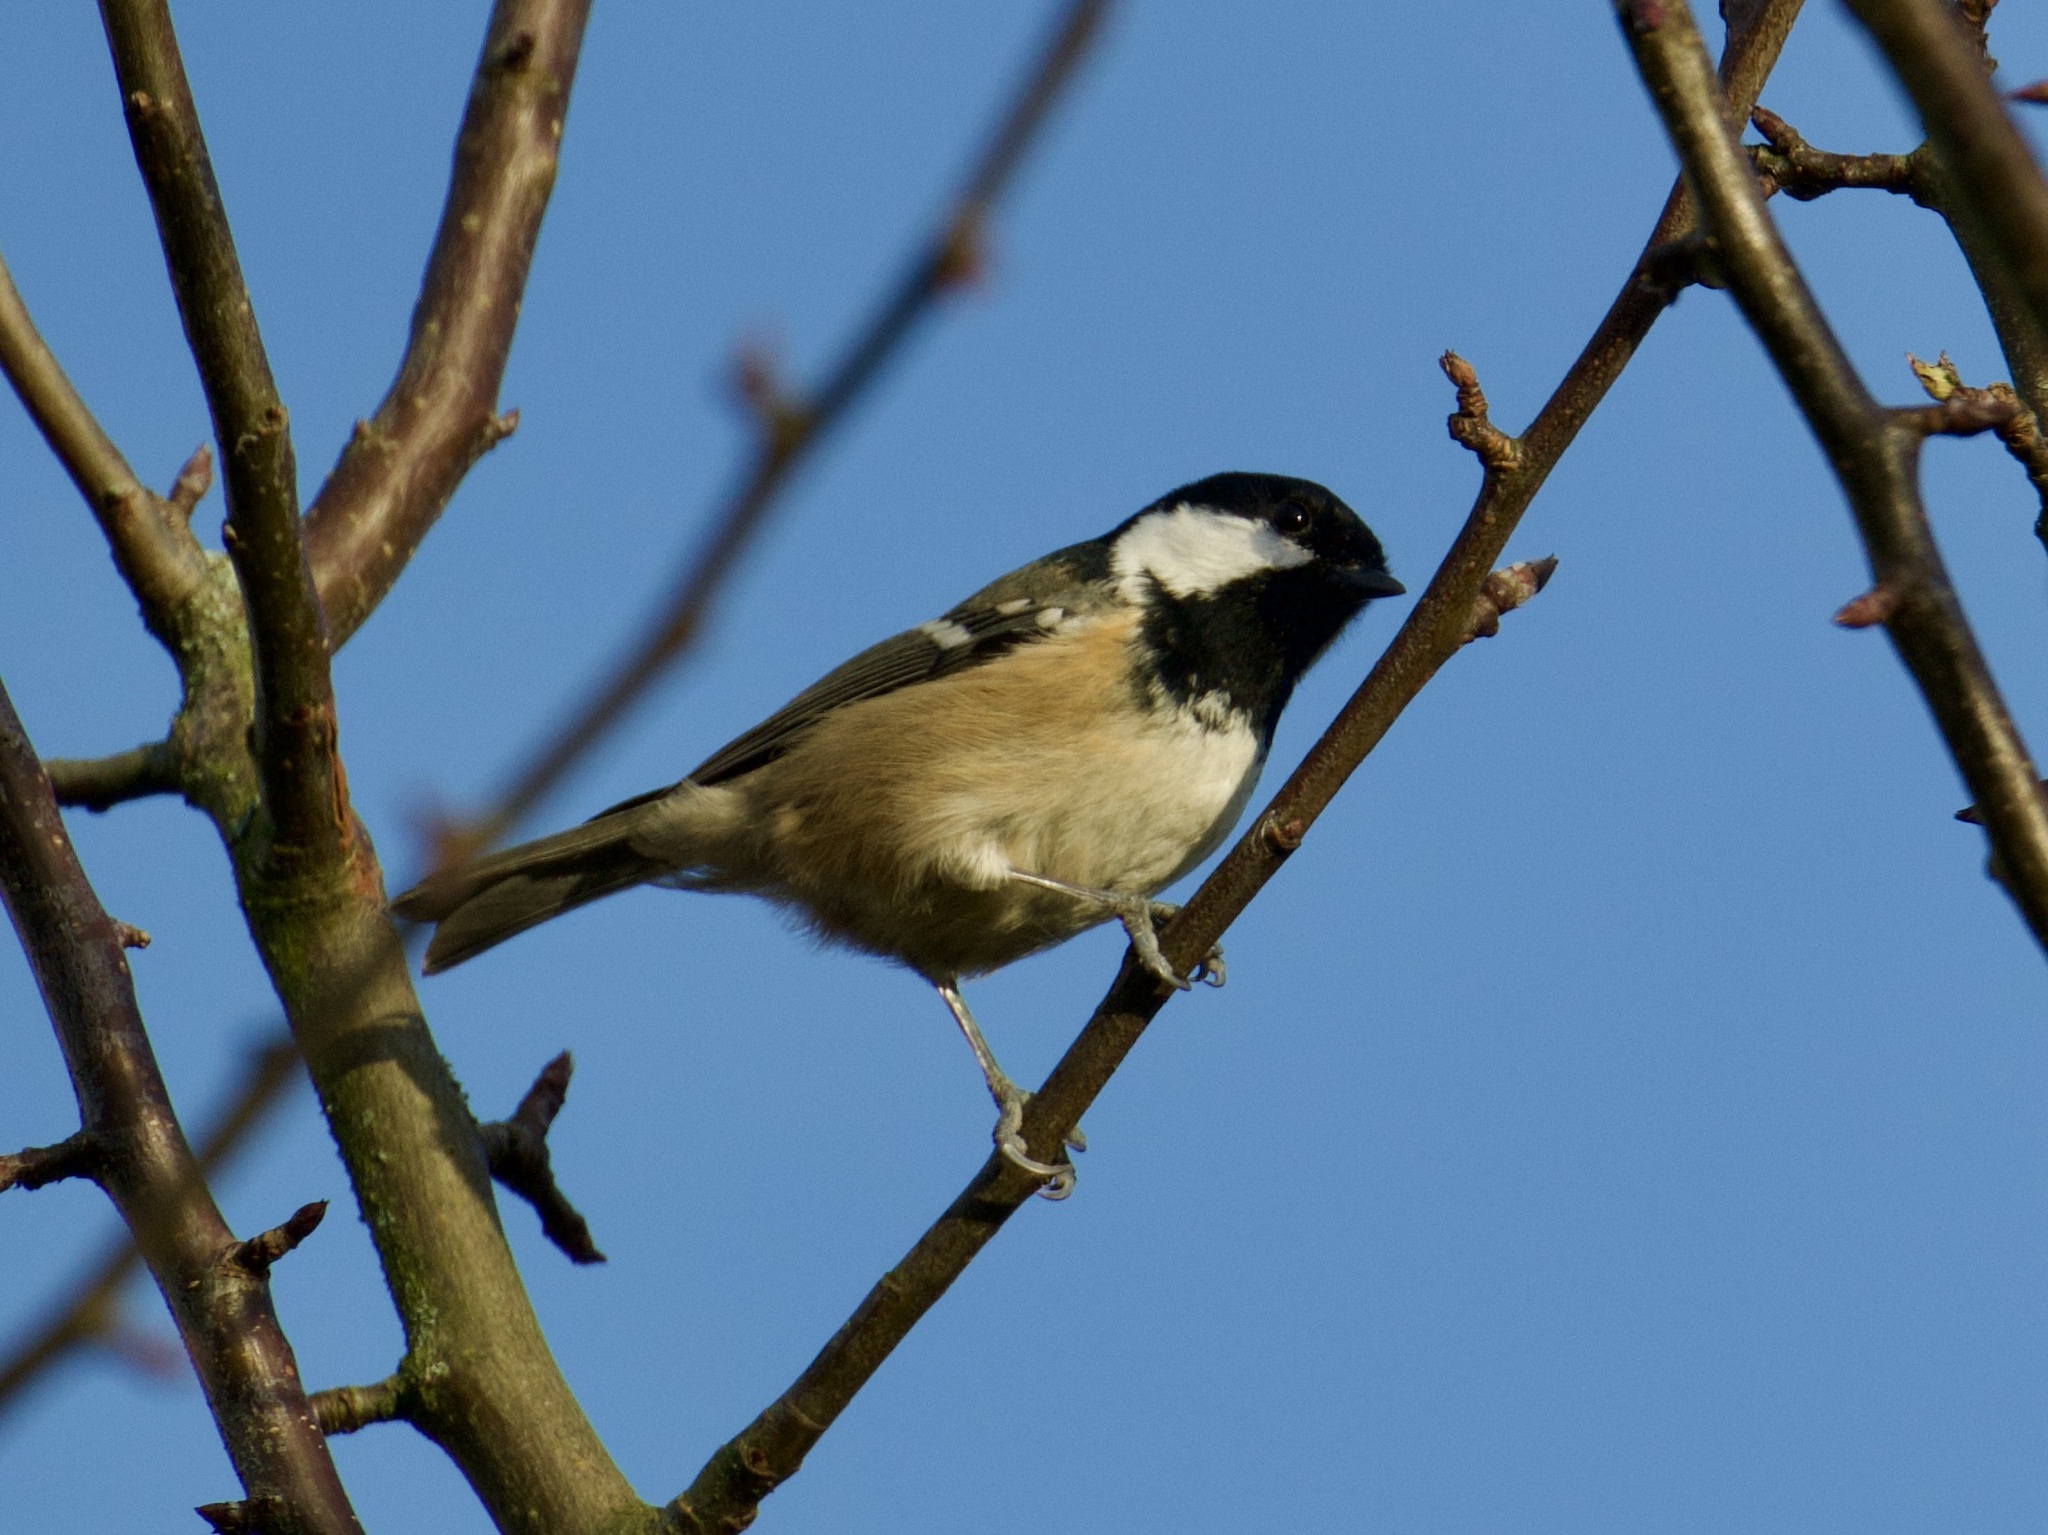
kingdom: Animalia
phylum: Chordata
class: Aves
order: Passeriformes
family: Paridae
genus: Periparus
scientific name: Periparus ater
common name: Coal tit
